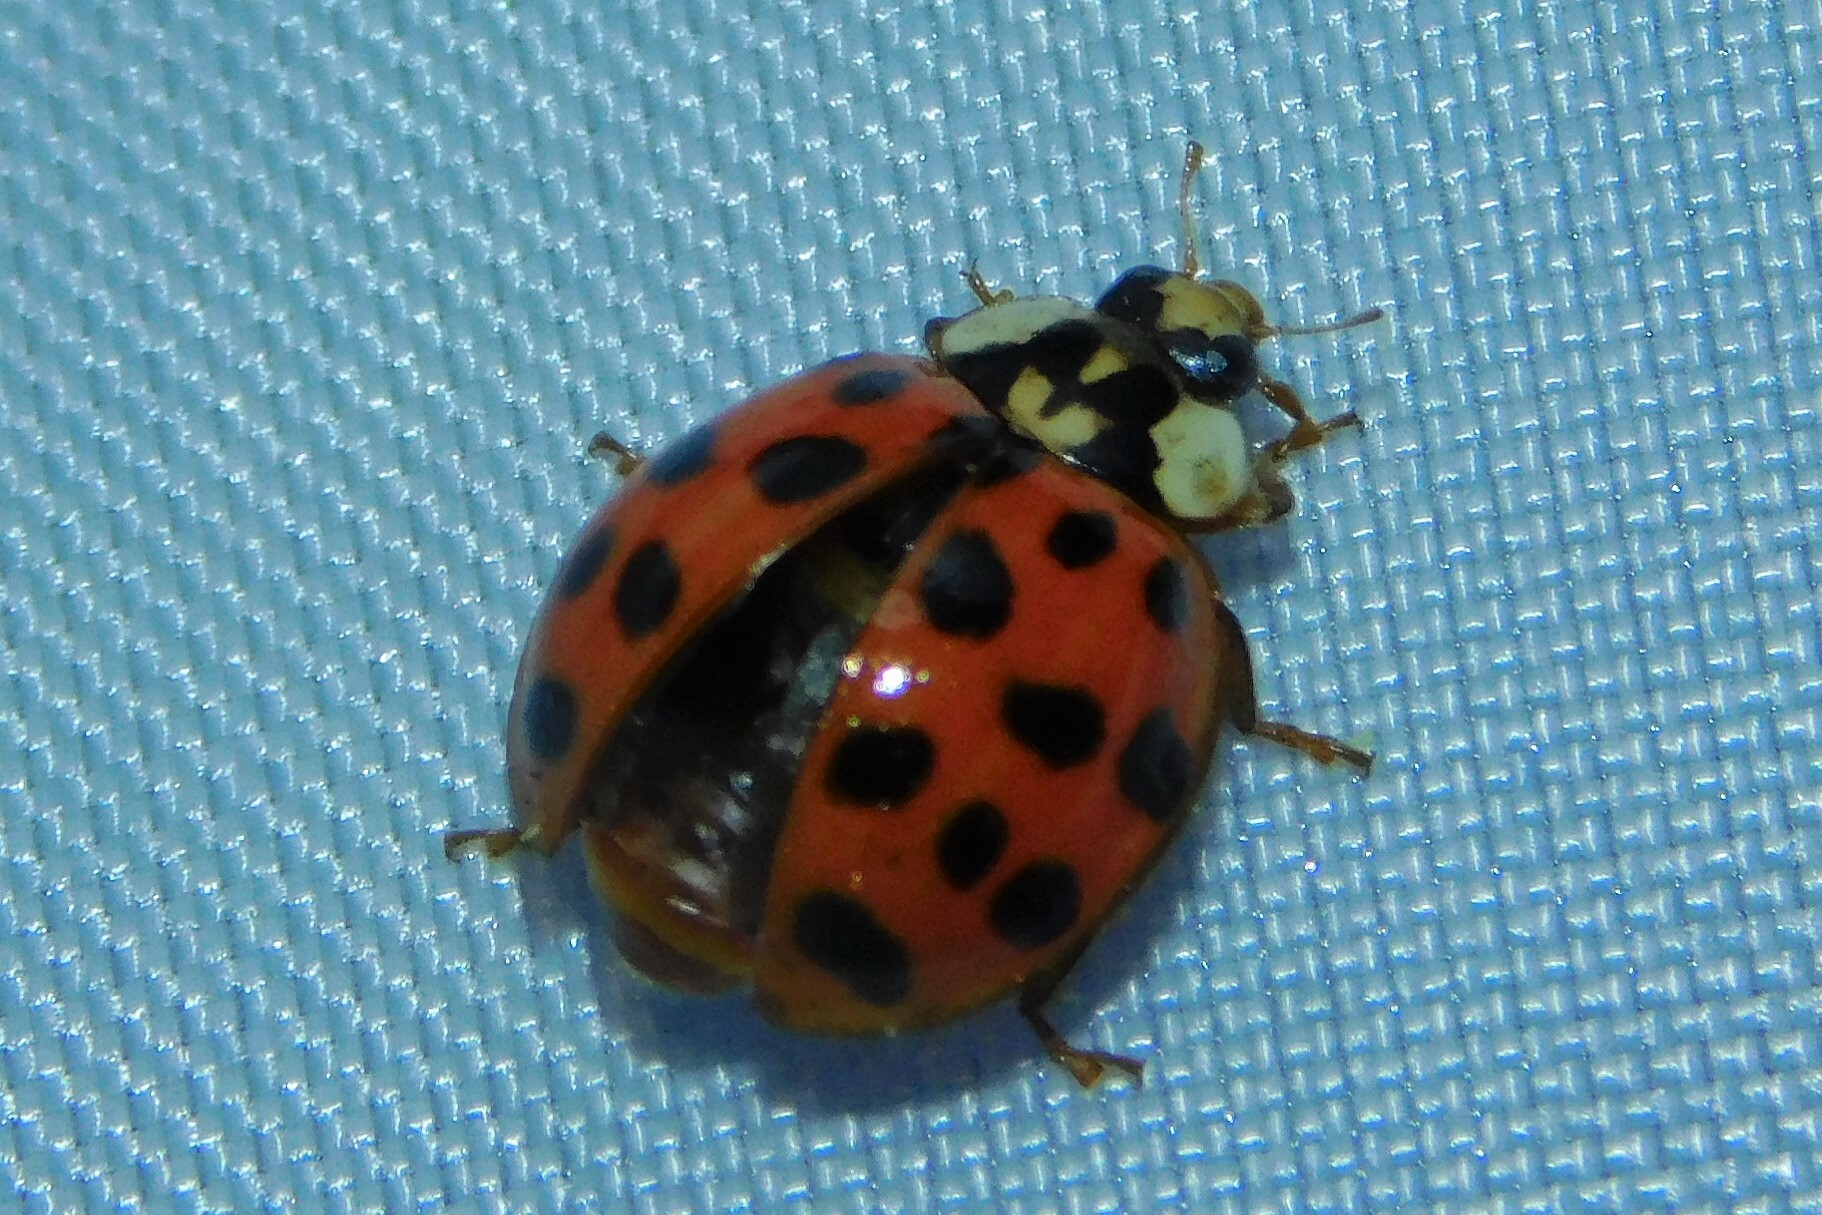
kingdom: Animalia
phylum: Arthropoda
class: Insecta
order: Coleoptera
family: Coccinellidae
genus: Harmonia
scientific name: Harmonia axyridis
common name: Harlequin ladybird
